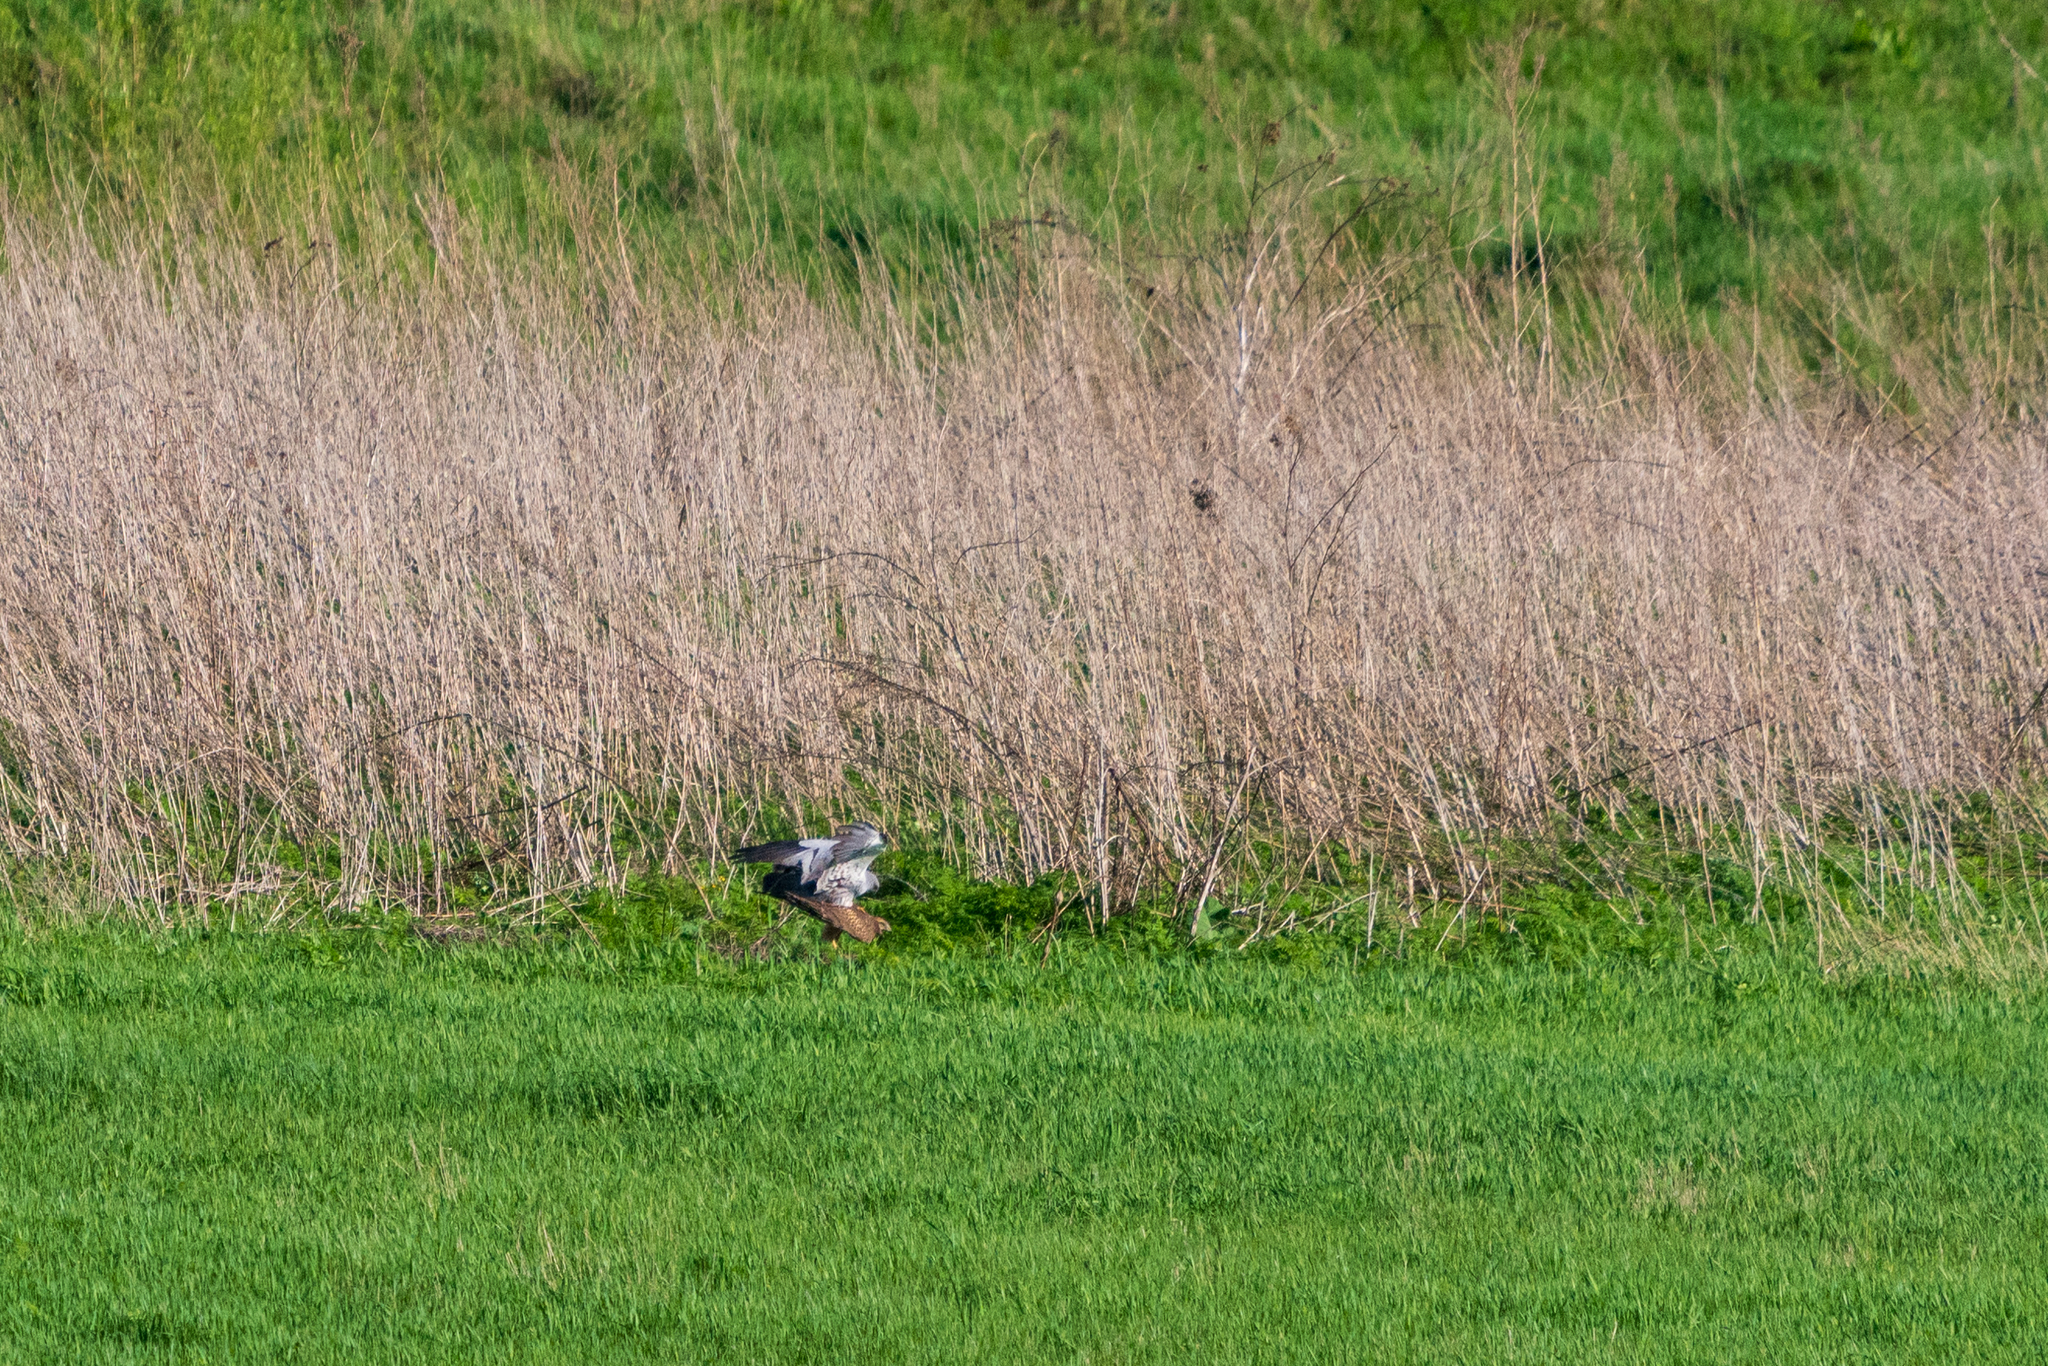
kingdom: Animalia
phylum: Chordata
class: Aves
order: Accipitriformes
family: Accipitridae
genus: Circus
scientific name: Circus pygargus
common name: Montagu's harrier
